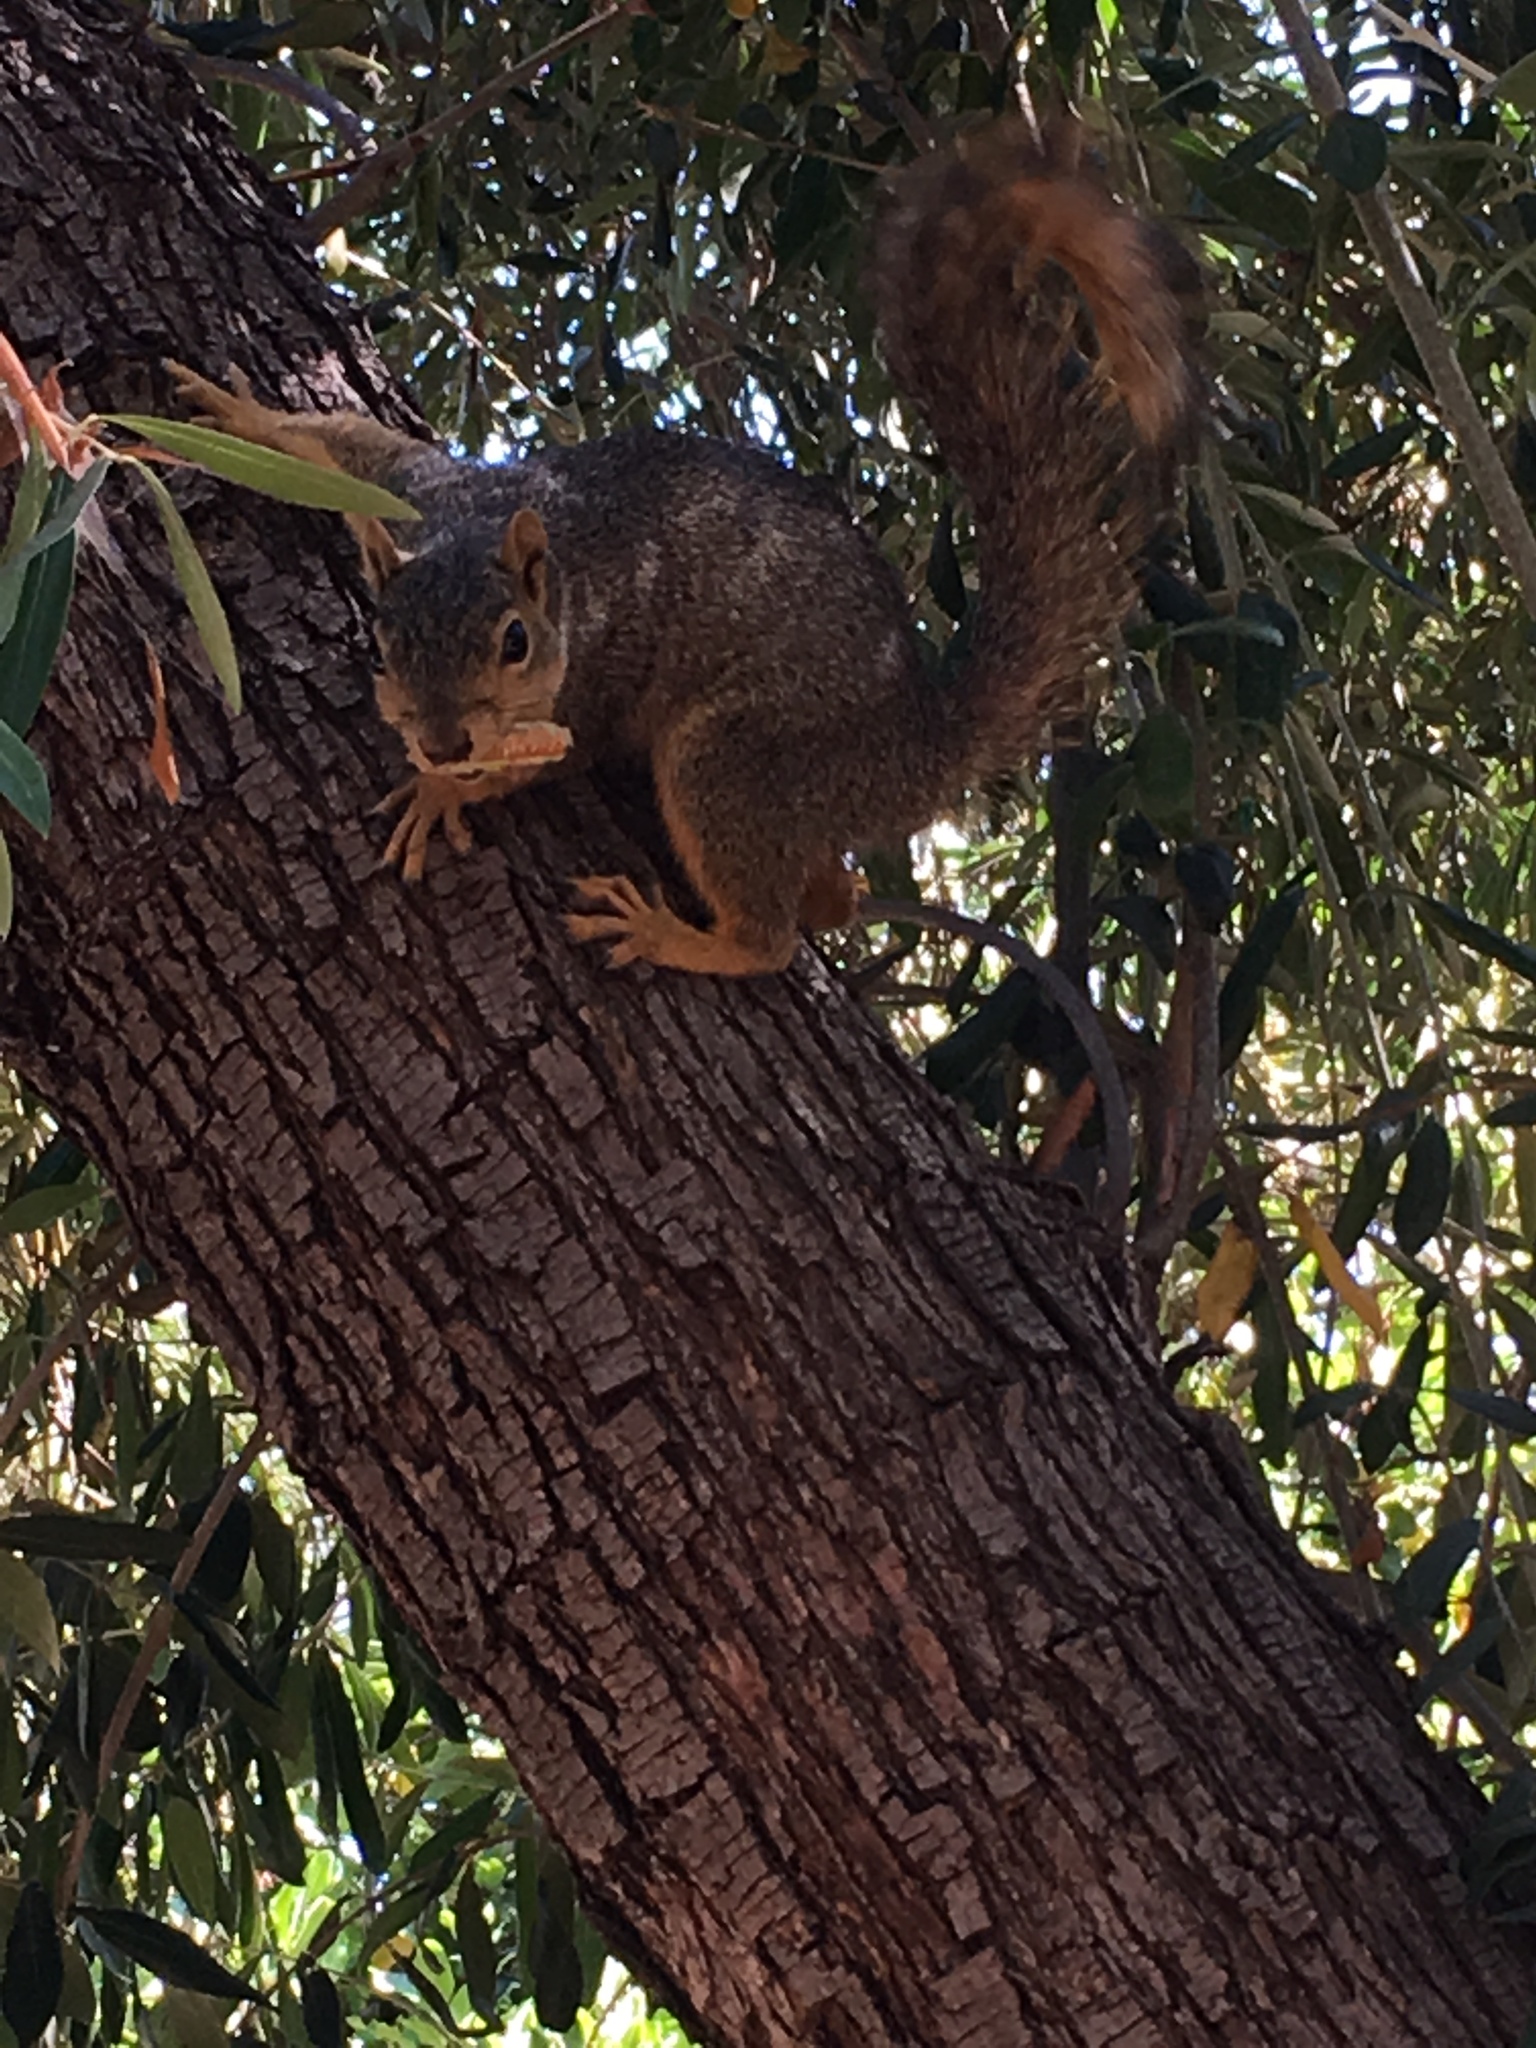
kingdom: Animalia
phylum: Chordata
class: Mammalia
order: Rodentia
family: Sciuridae
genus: Sciurus
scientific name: Sciurus niger
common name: Fox squirrel
